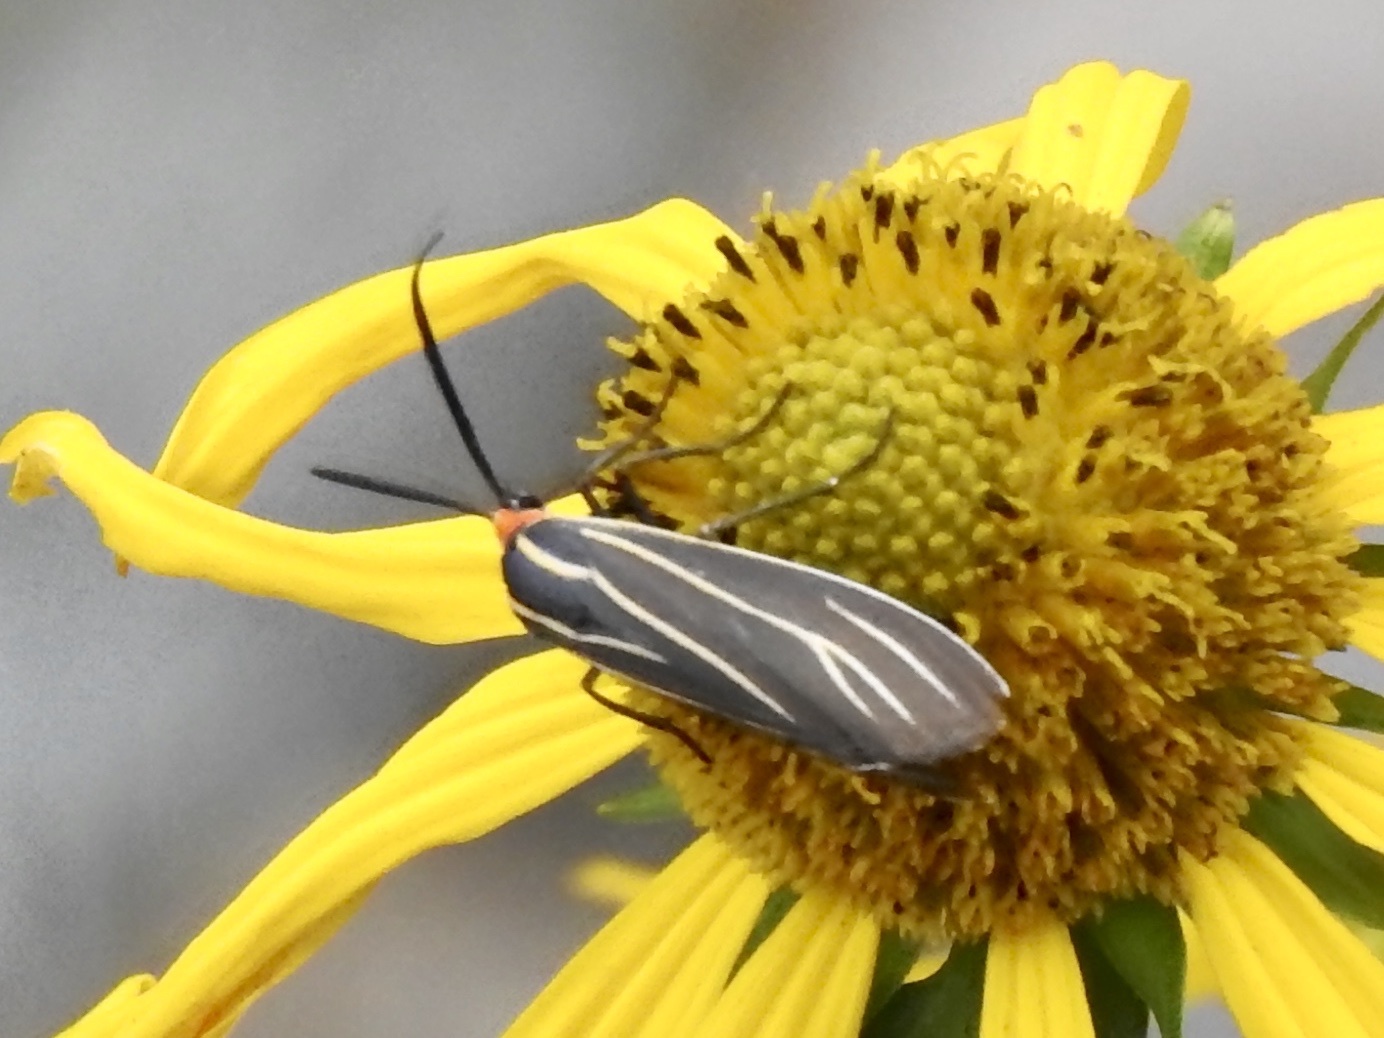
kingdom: Animalia
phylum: Arthropoda
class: Insecta
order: Lepidoptera
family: Erebidae
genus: Ctenucha
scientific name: Ctenucha venosa
